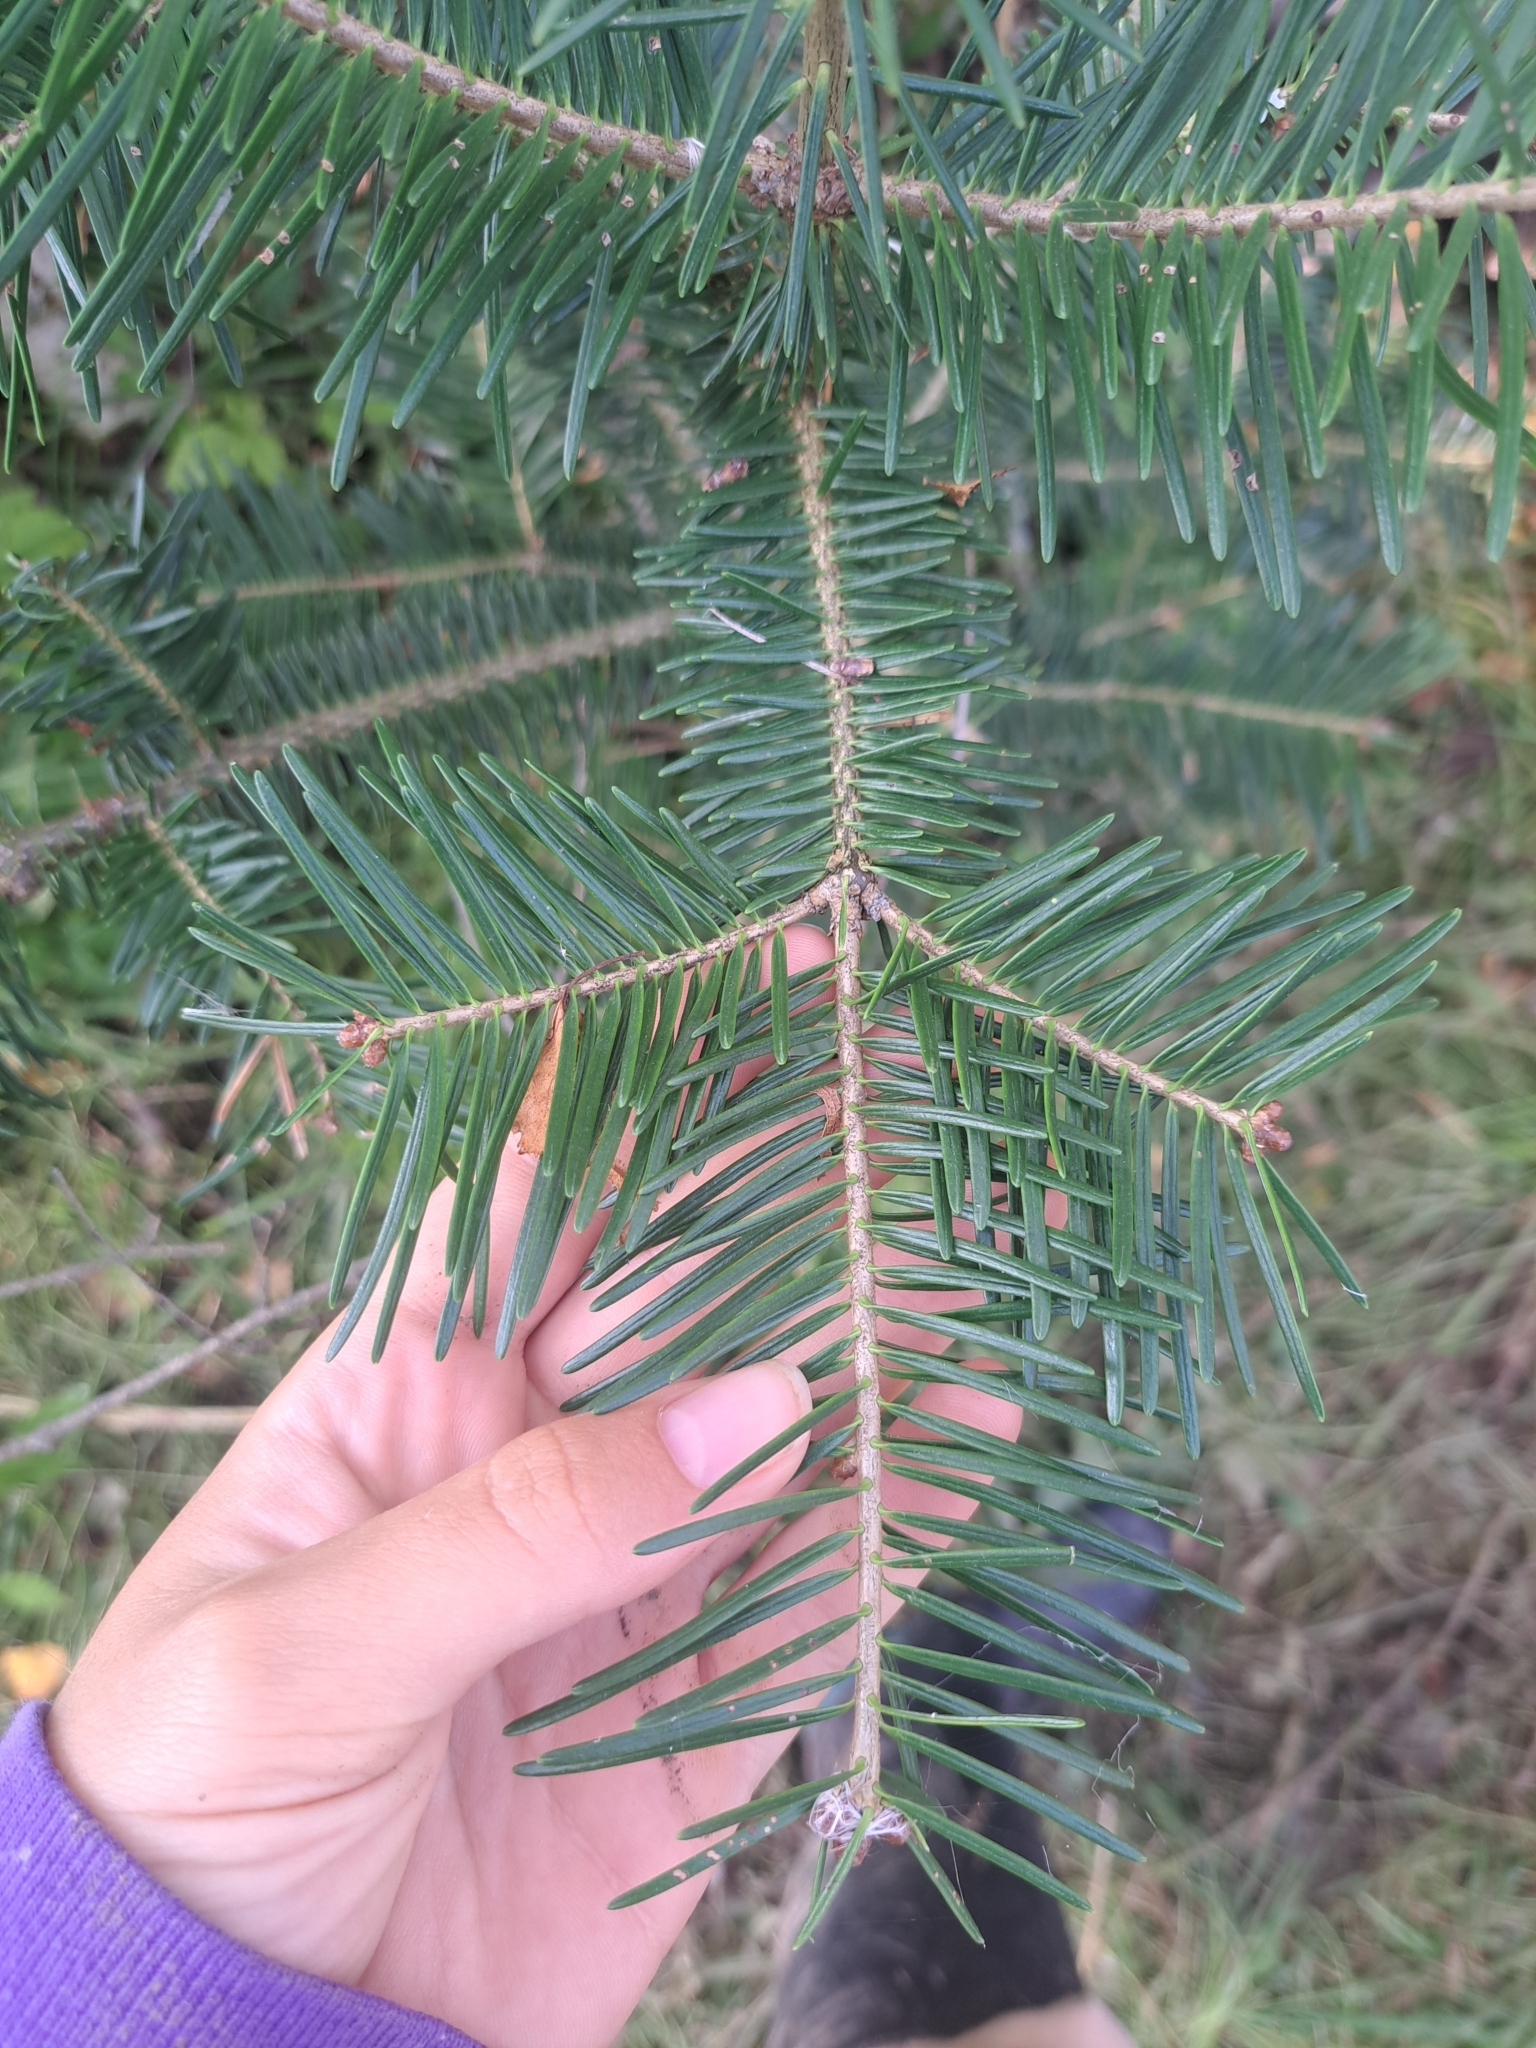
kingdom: Plantae
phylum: Tracheophyta
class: Pinopsida
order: Pinales
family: Pinaceae
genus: Abies
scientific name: Abies balsamea
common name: Balsam fir
